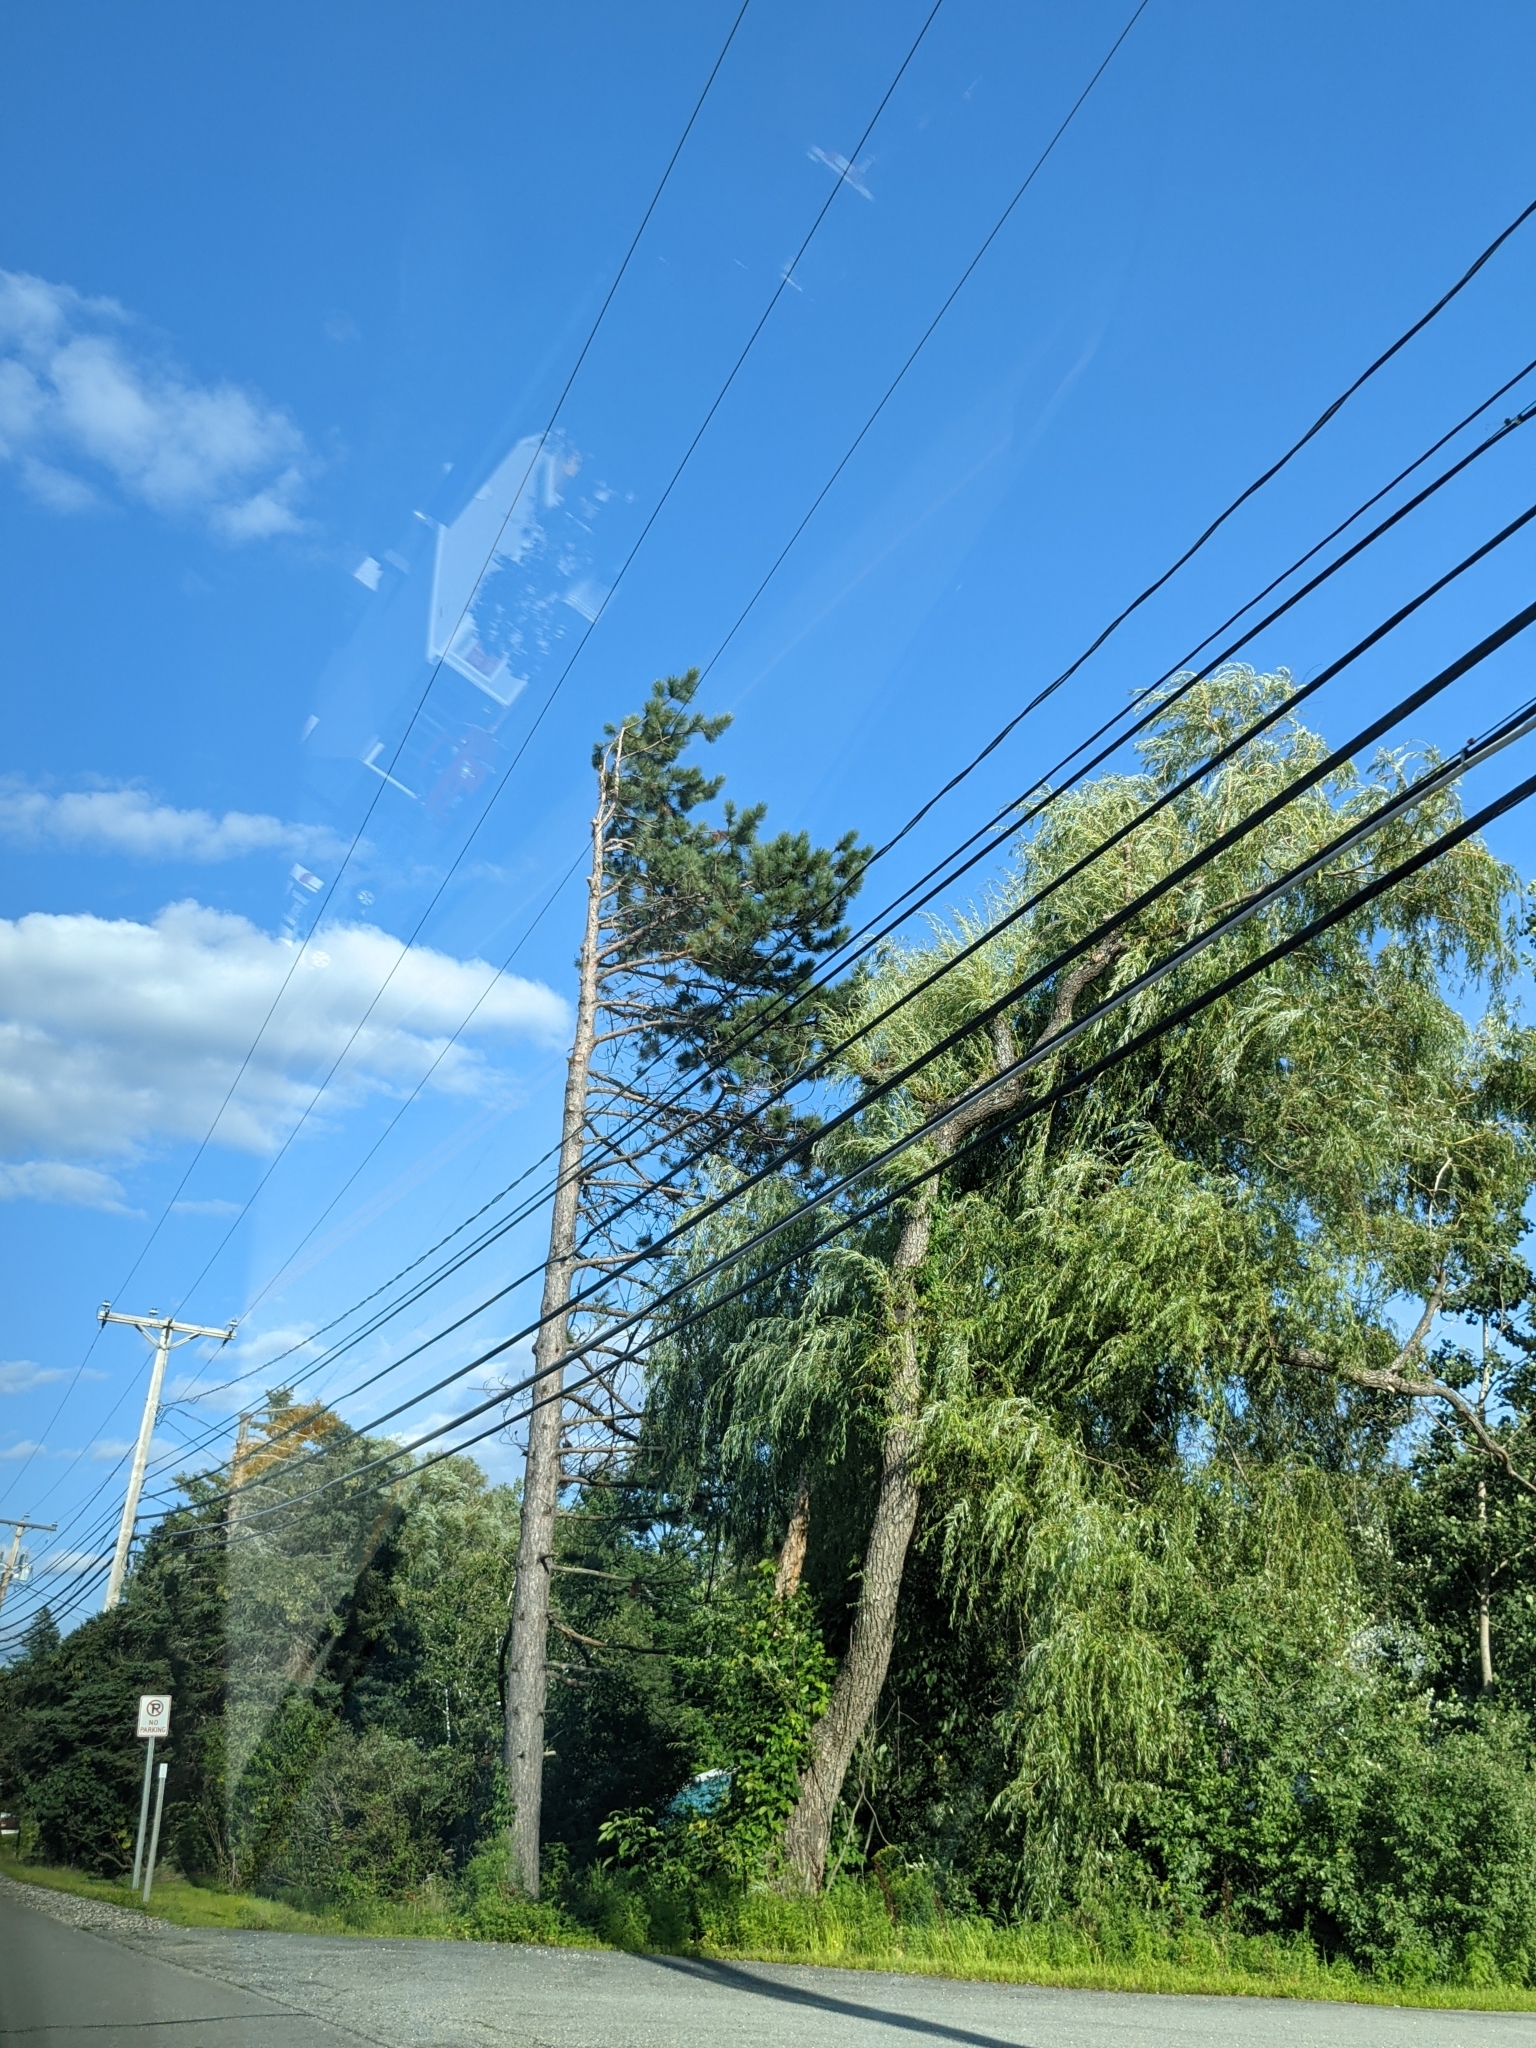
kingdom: Plantae
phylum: Tracheophyta
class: Pinopsida
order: Pinales
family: Pinaceae
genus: Pinus
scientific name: Pinus resinosa
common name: Norway pine
